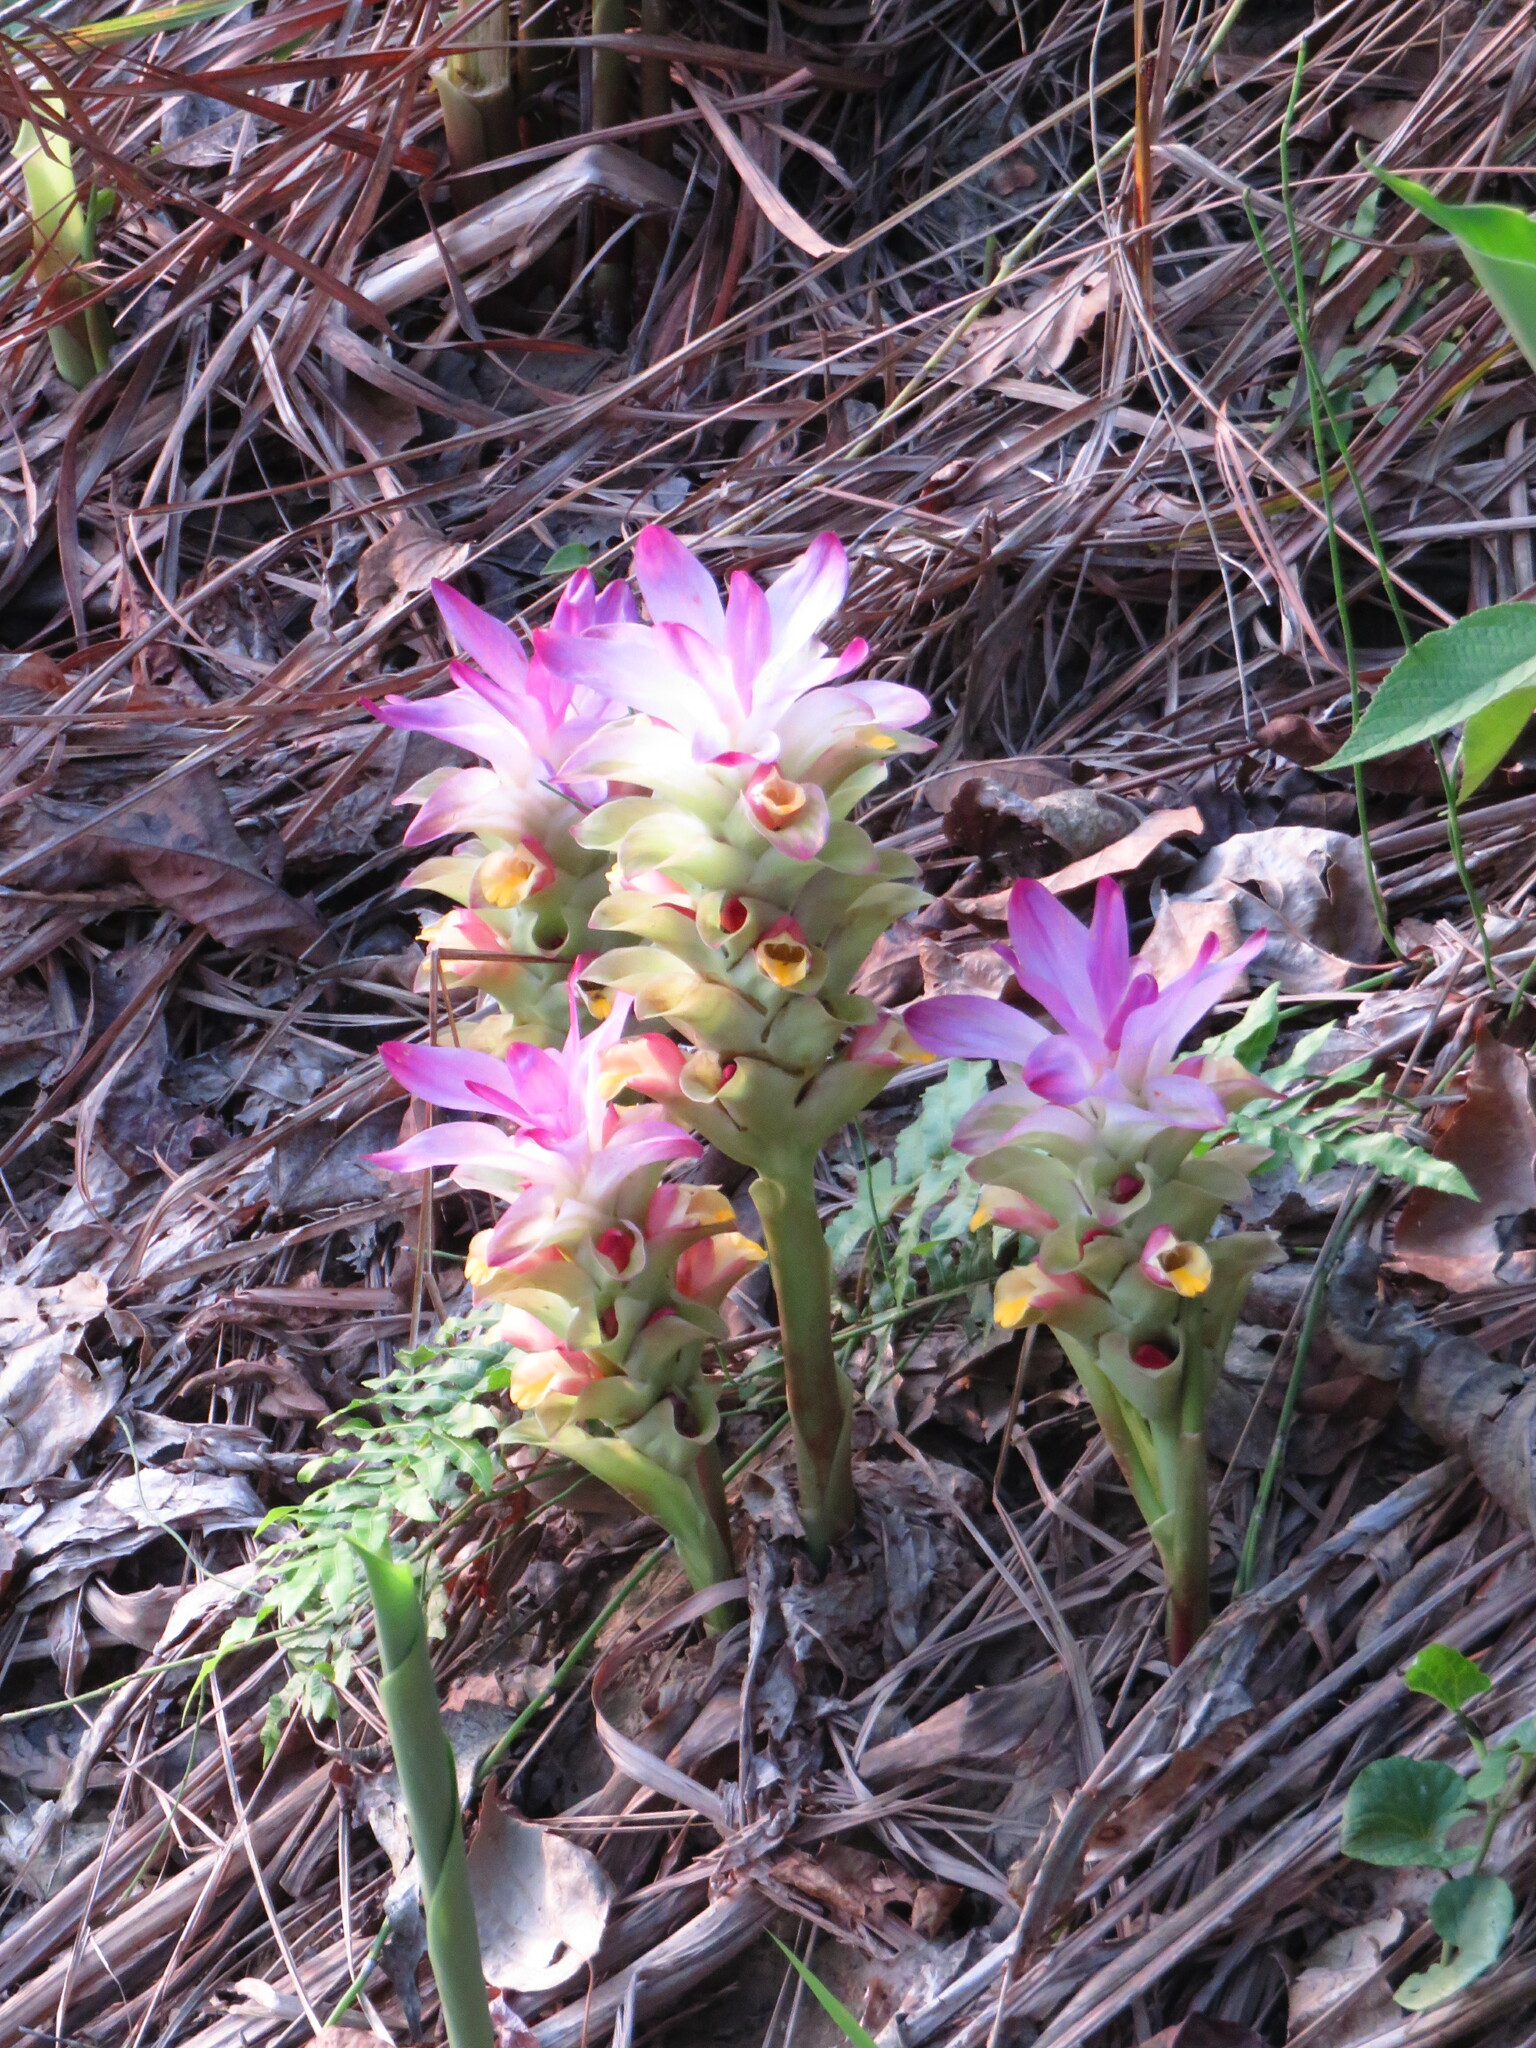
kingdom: Plantae
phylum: Tracheophyta
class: Liliopsida
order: Zingiberales
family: Zingiberaceae
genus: Curcuma
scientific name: Curcuma longa
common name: Turmeric
